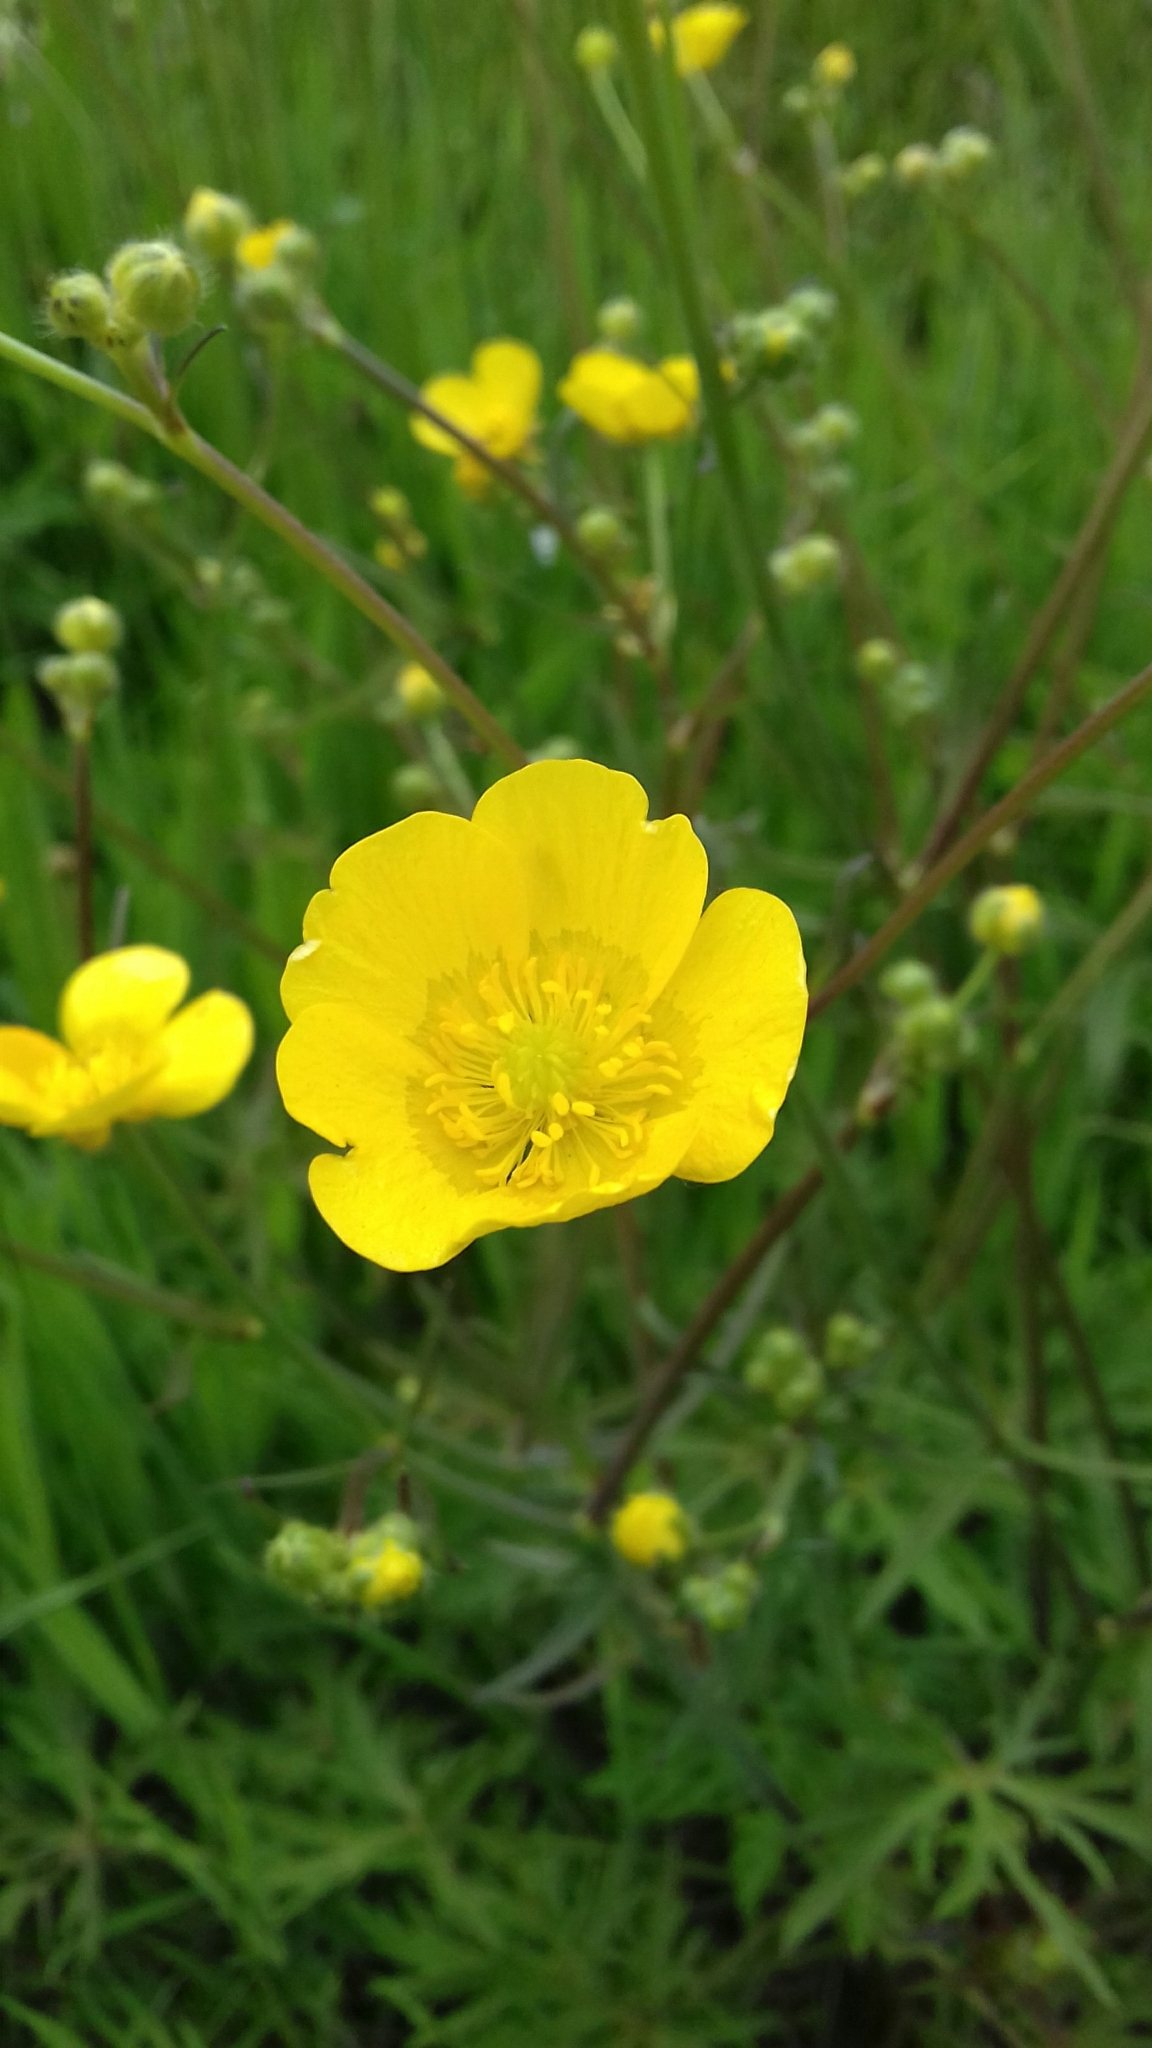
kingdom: Plantae
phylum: Tracheophyta
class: Magnoliopsida
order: Ranunculales
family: Ranunculaceae
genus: Ranunculus
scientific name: Ranunculus acris
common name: Meadow buttercup
